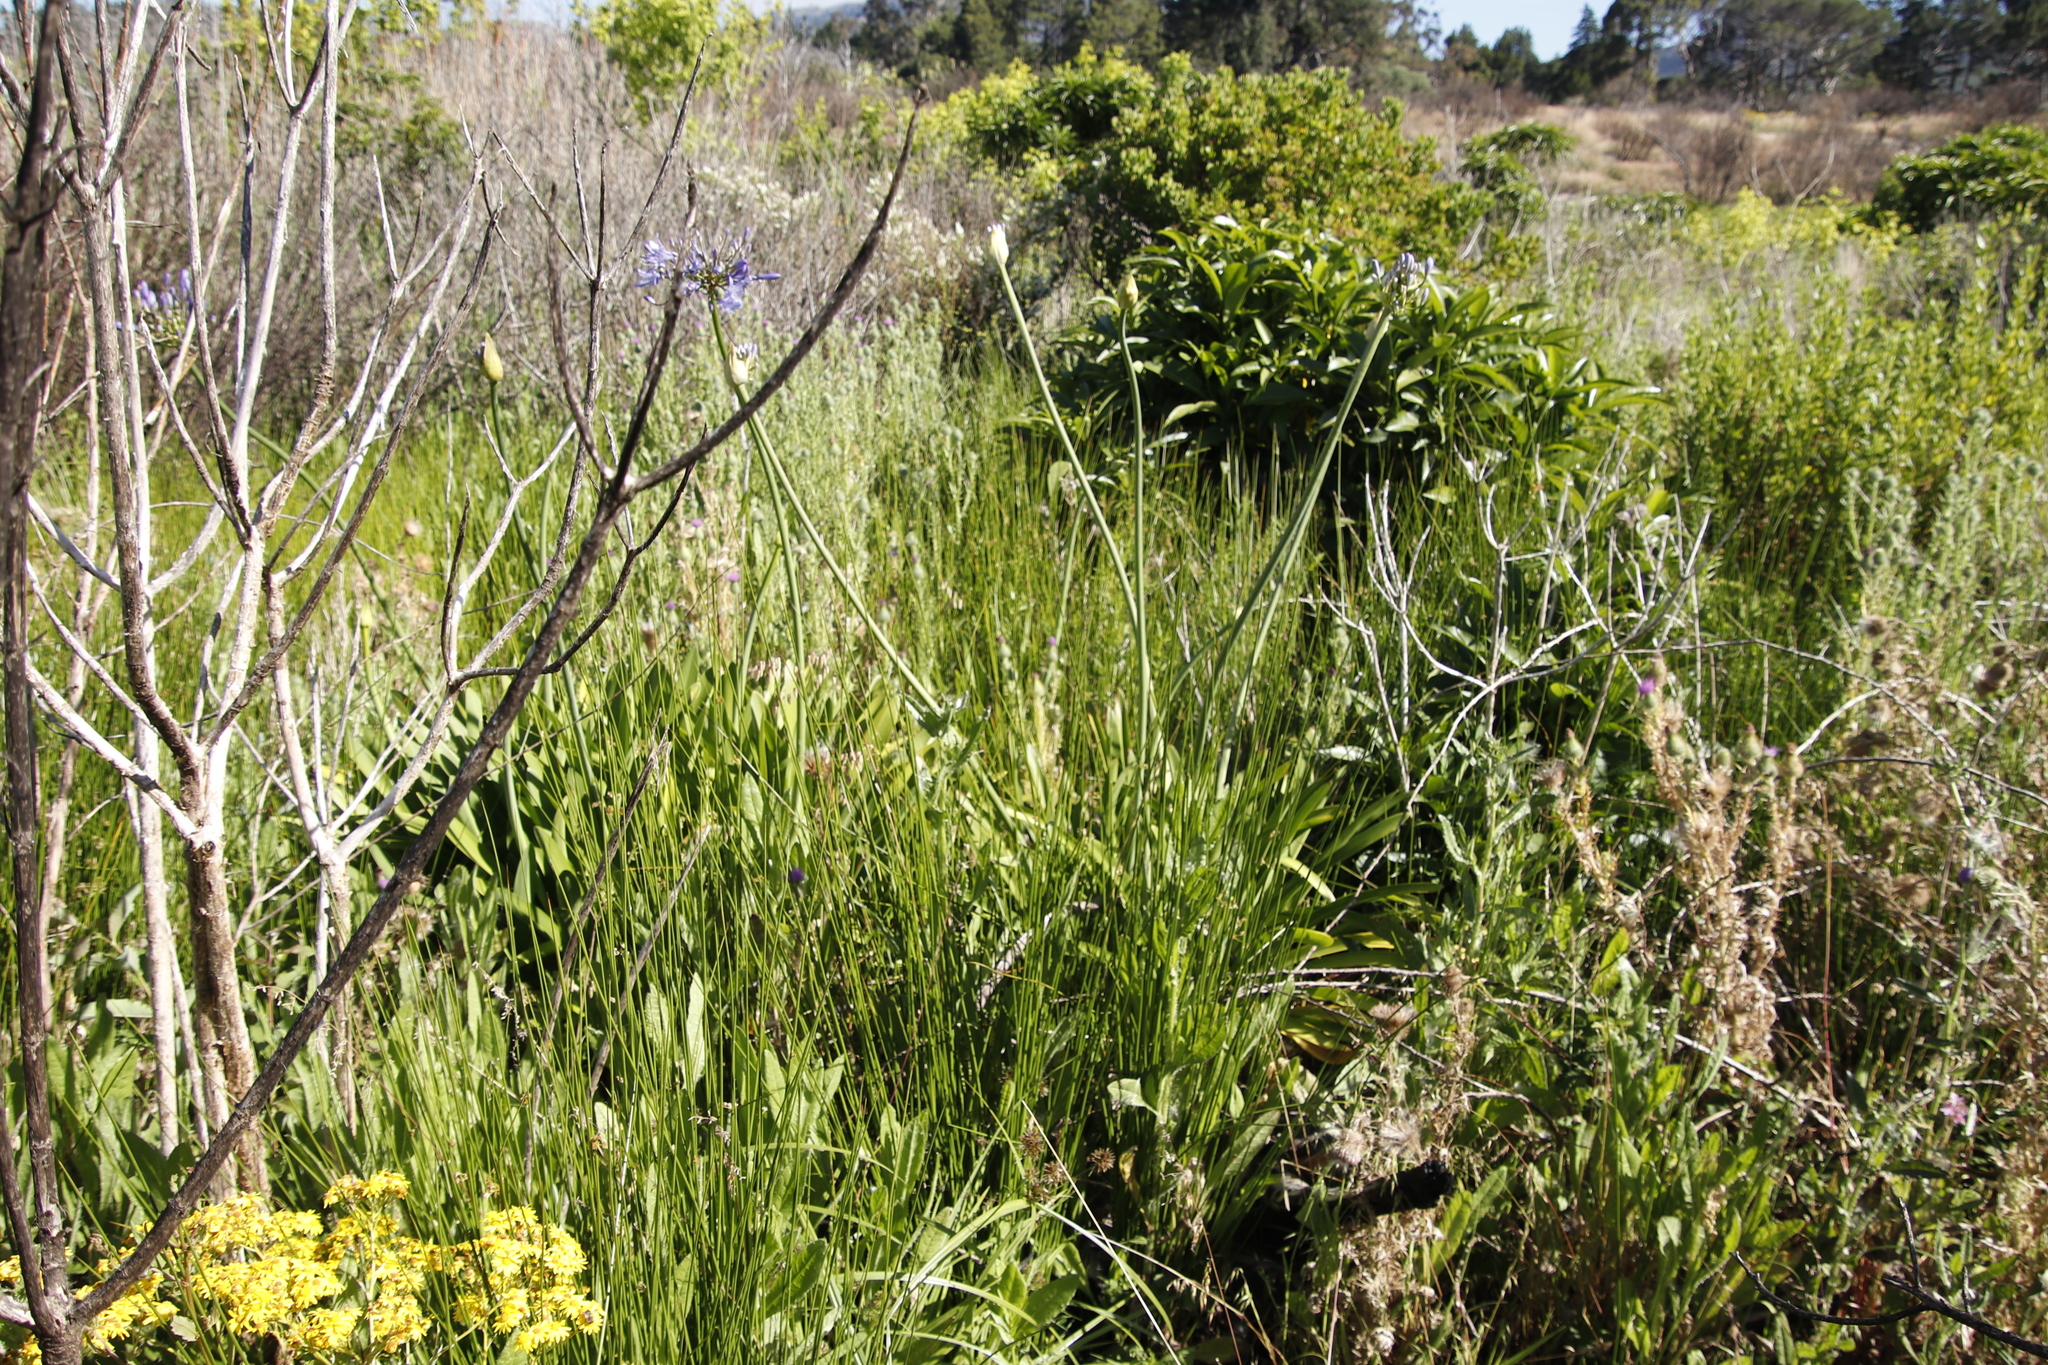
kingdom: Plantae
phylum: Tracheophyta
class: Liliopsida
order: Asparagales
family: Amaryllidaceae
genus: Agapanthus
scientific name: Agapanthus praecox
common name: African-lily
